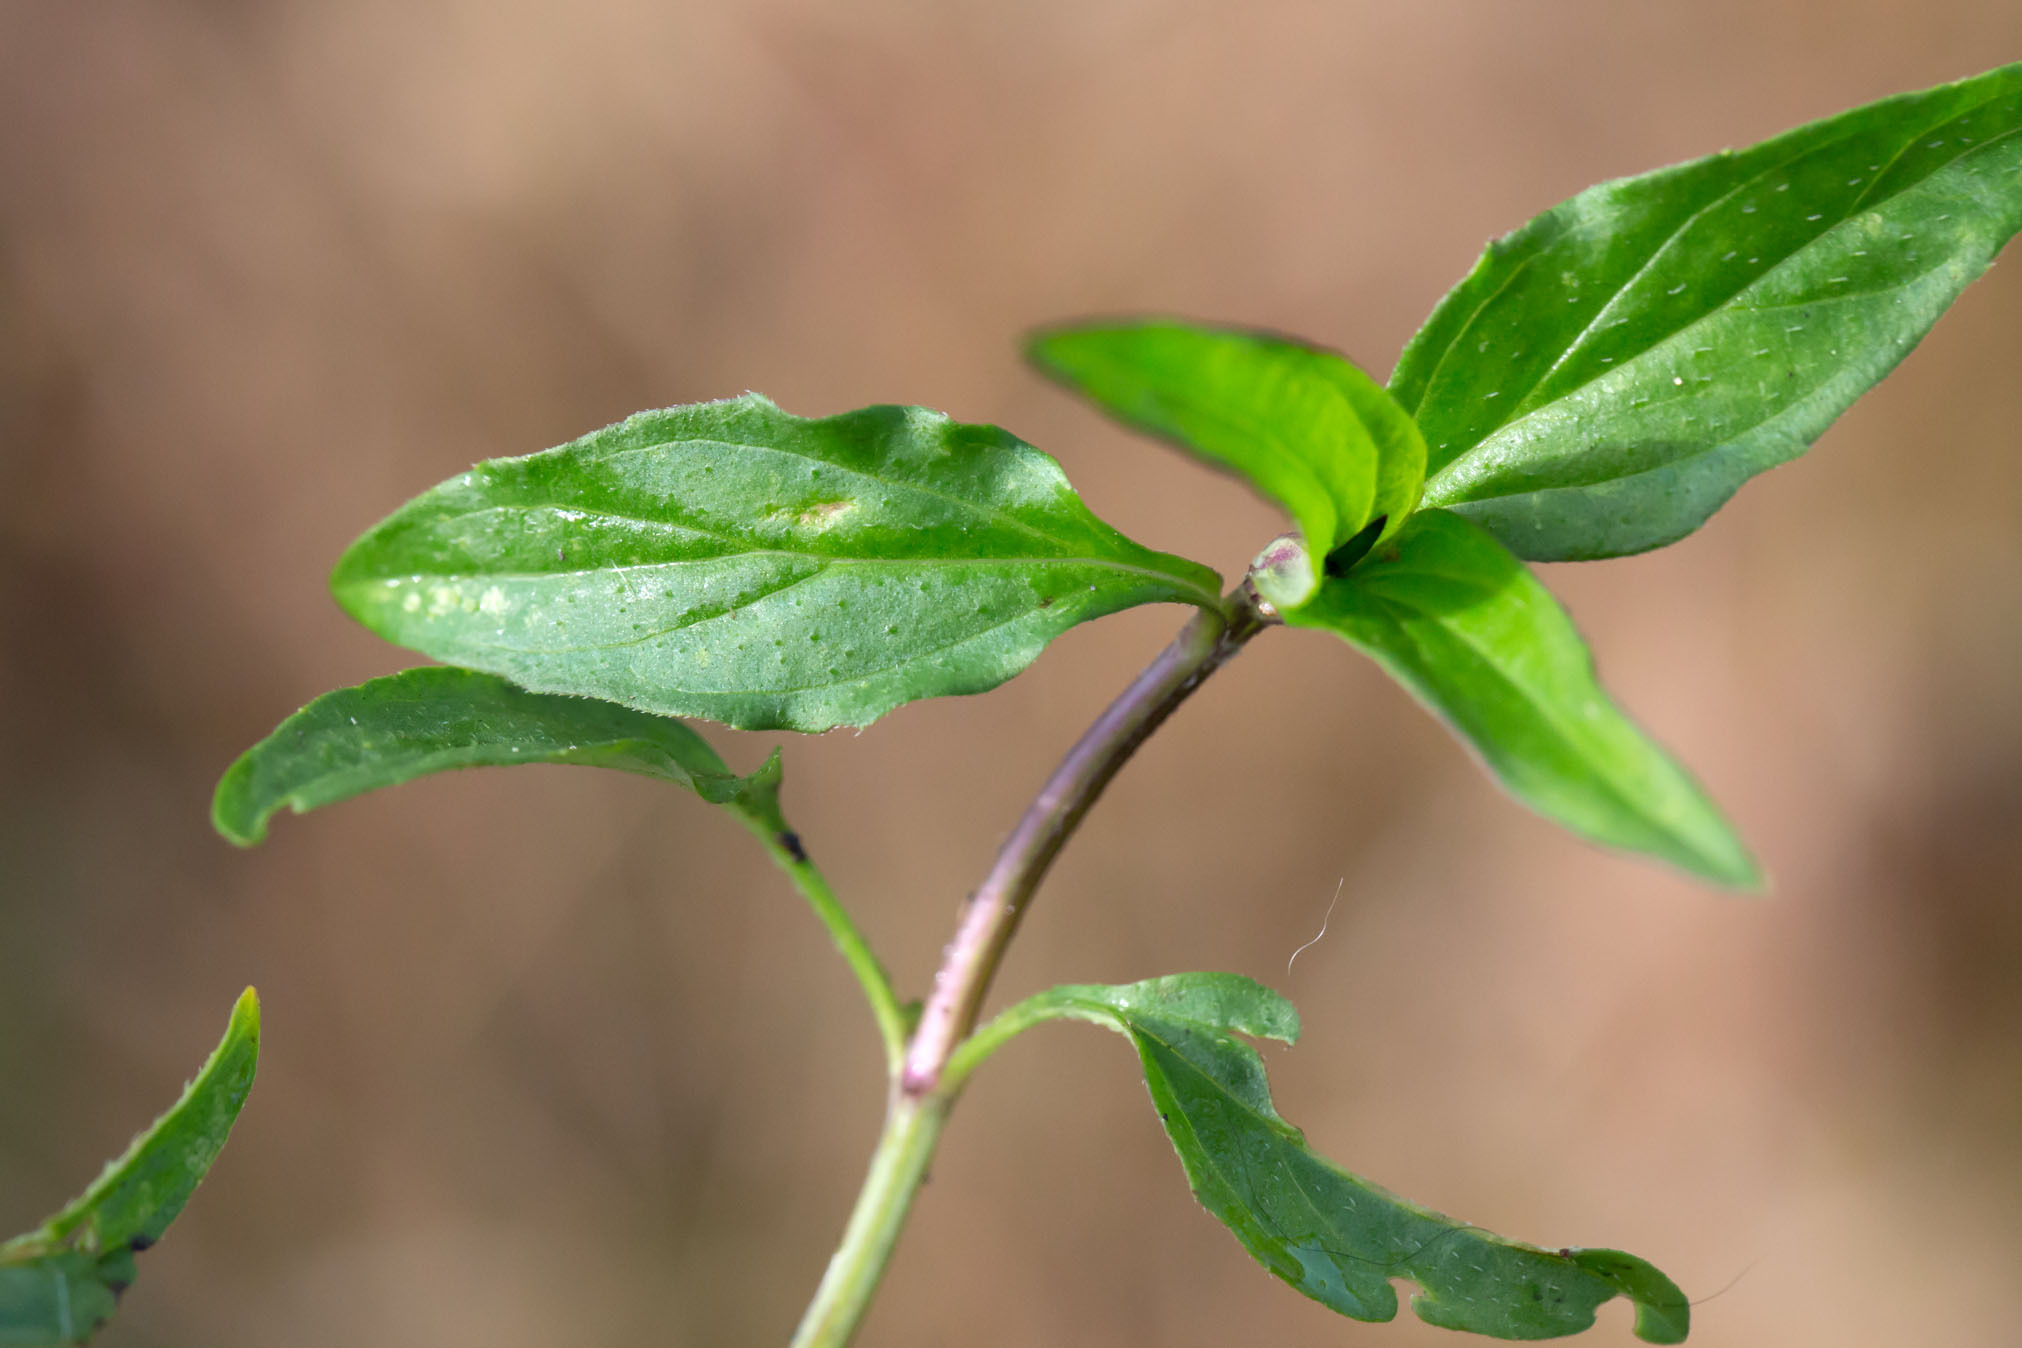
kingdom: Plantae
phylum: Tracheophyta
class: Magnoliopsida
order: Lamiales
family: Lamiaceae
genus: Prunella
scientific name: Prunella vulgaris
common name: Heal-all
